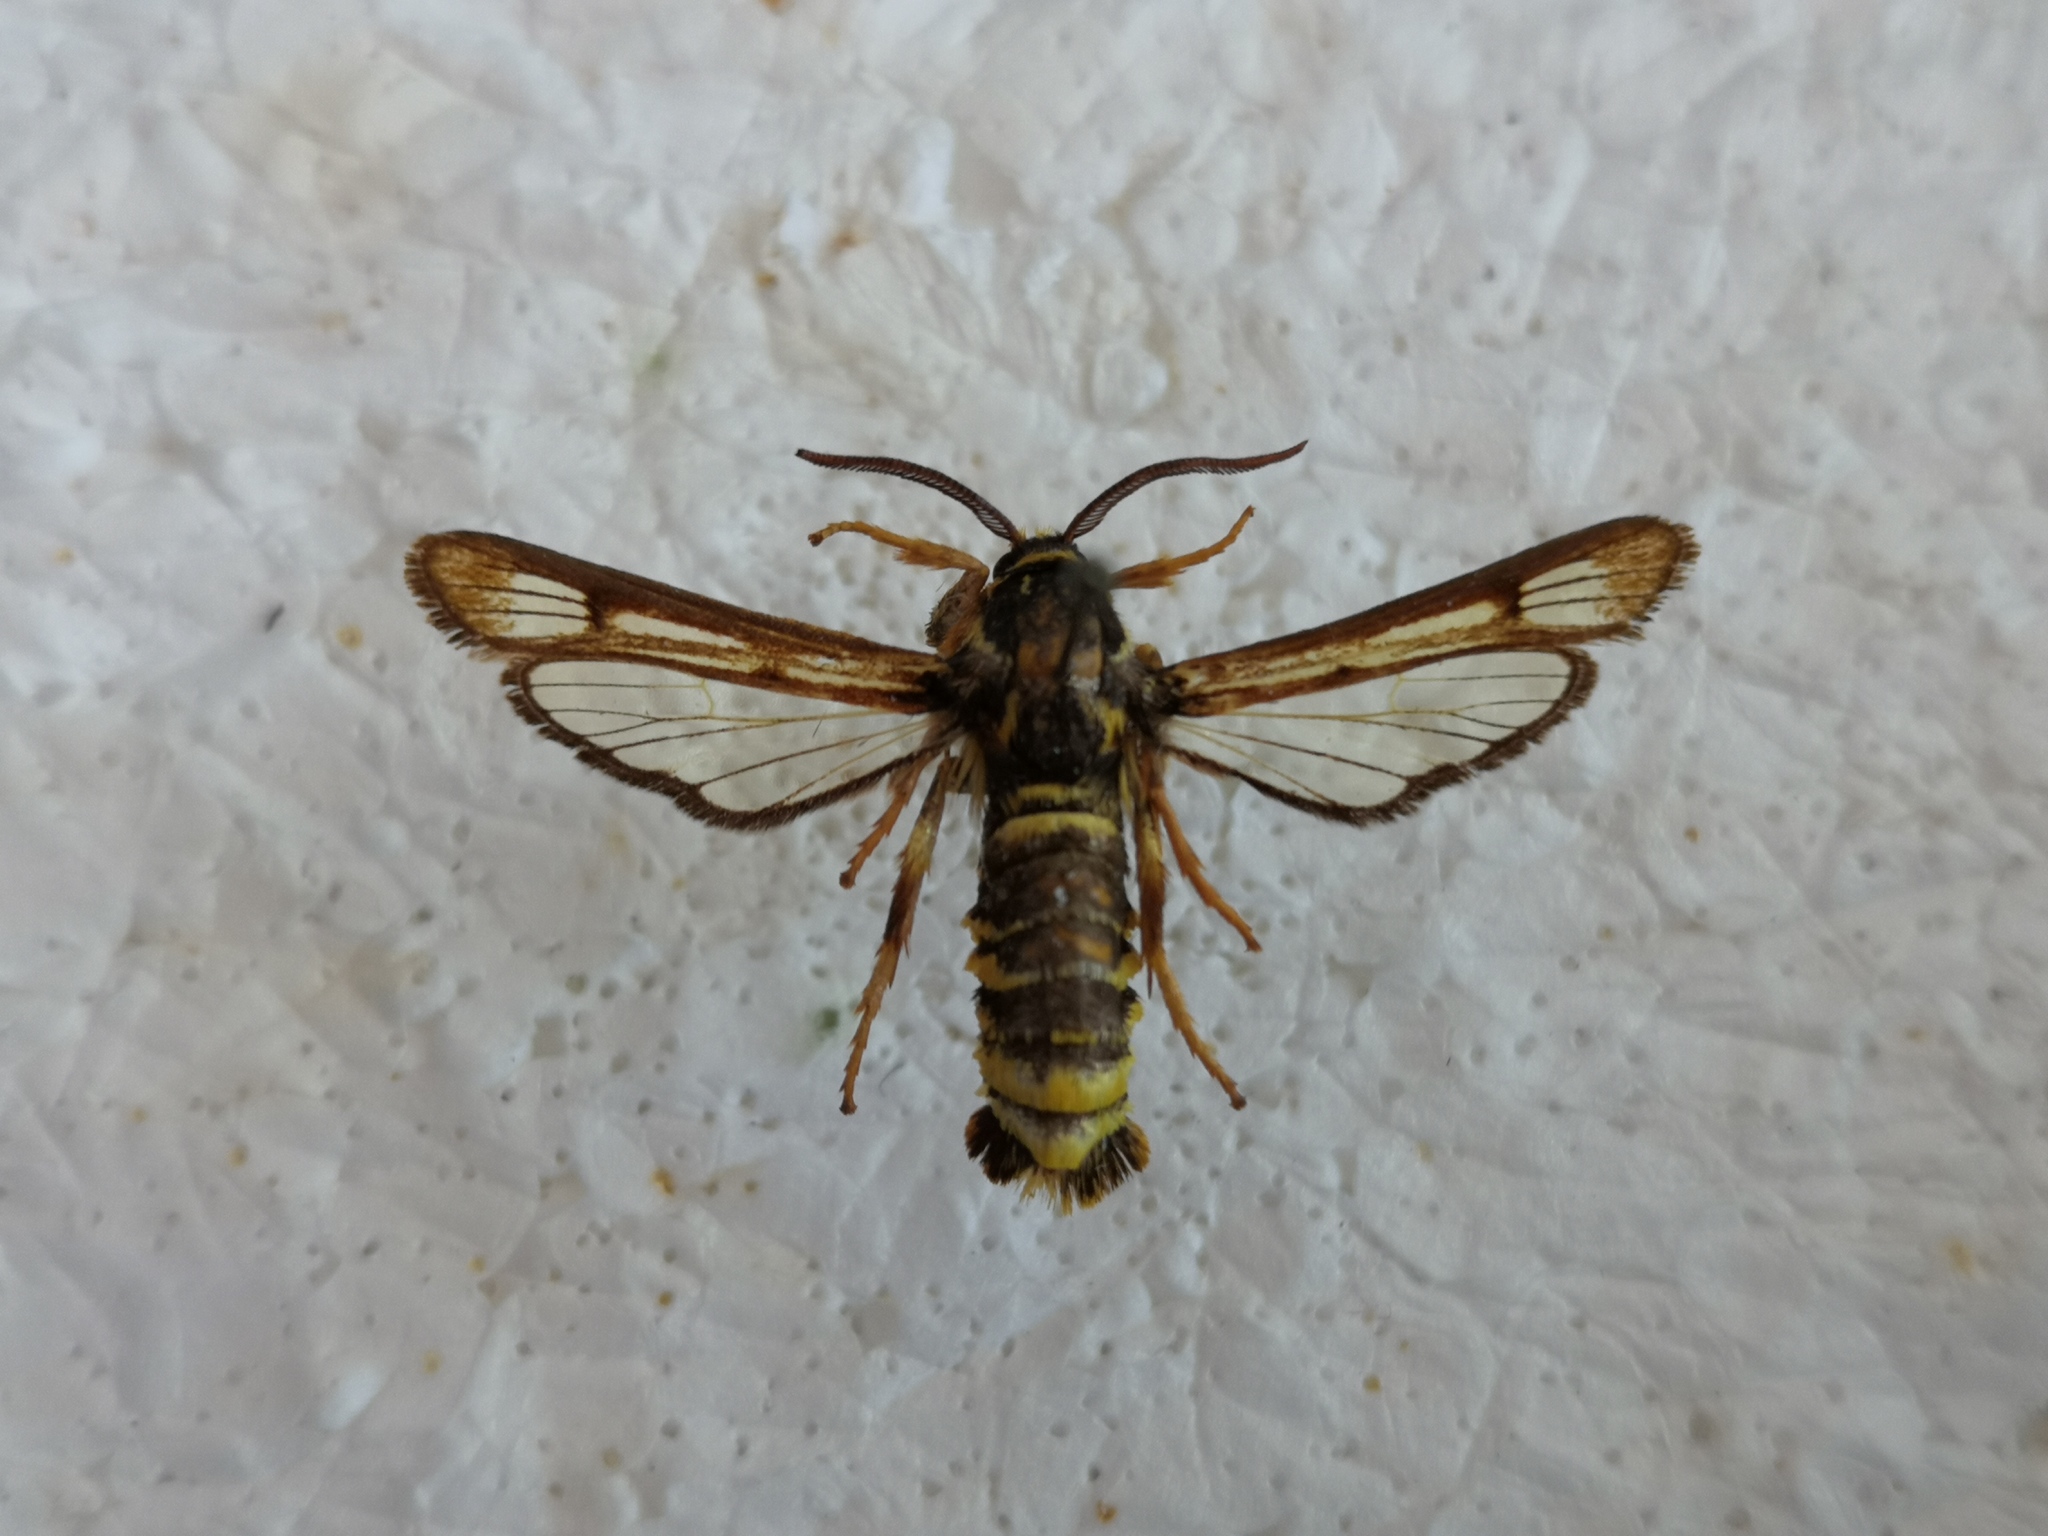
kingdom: Animalia
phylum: Arthropoda
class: Insecta
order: Lepidoptera
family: Sesiidae
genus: Pennisetia
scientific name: Pennisetia bohemica
